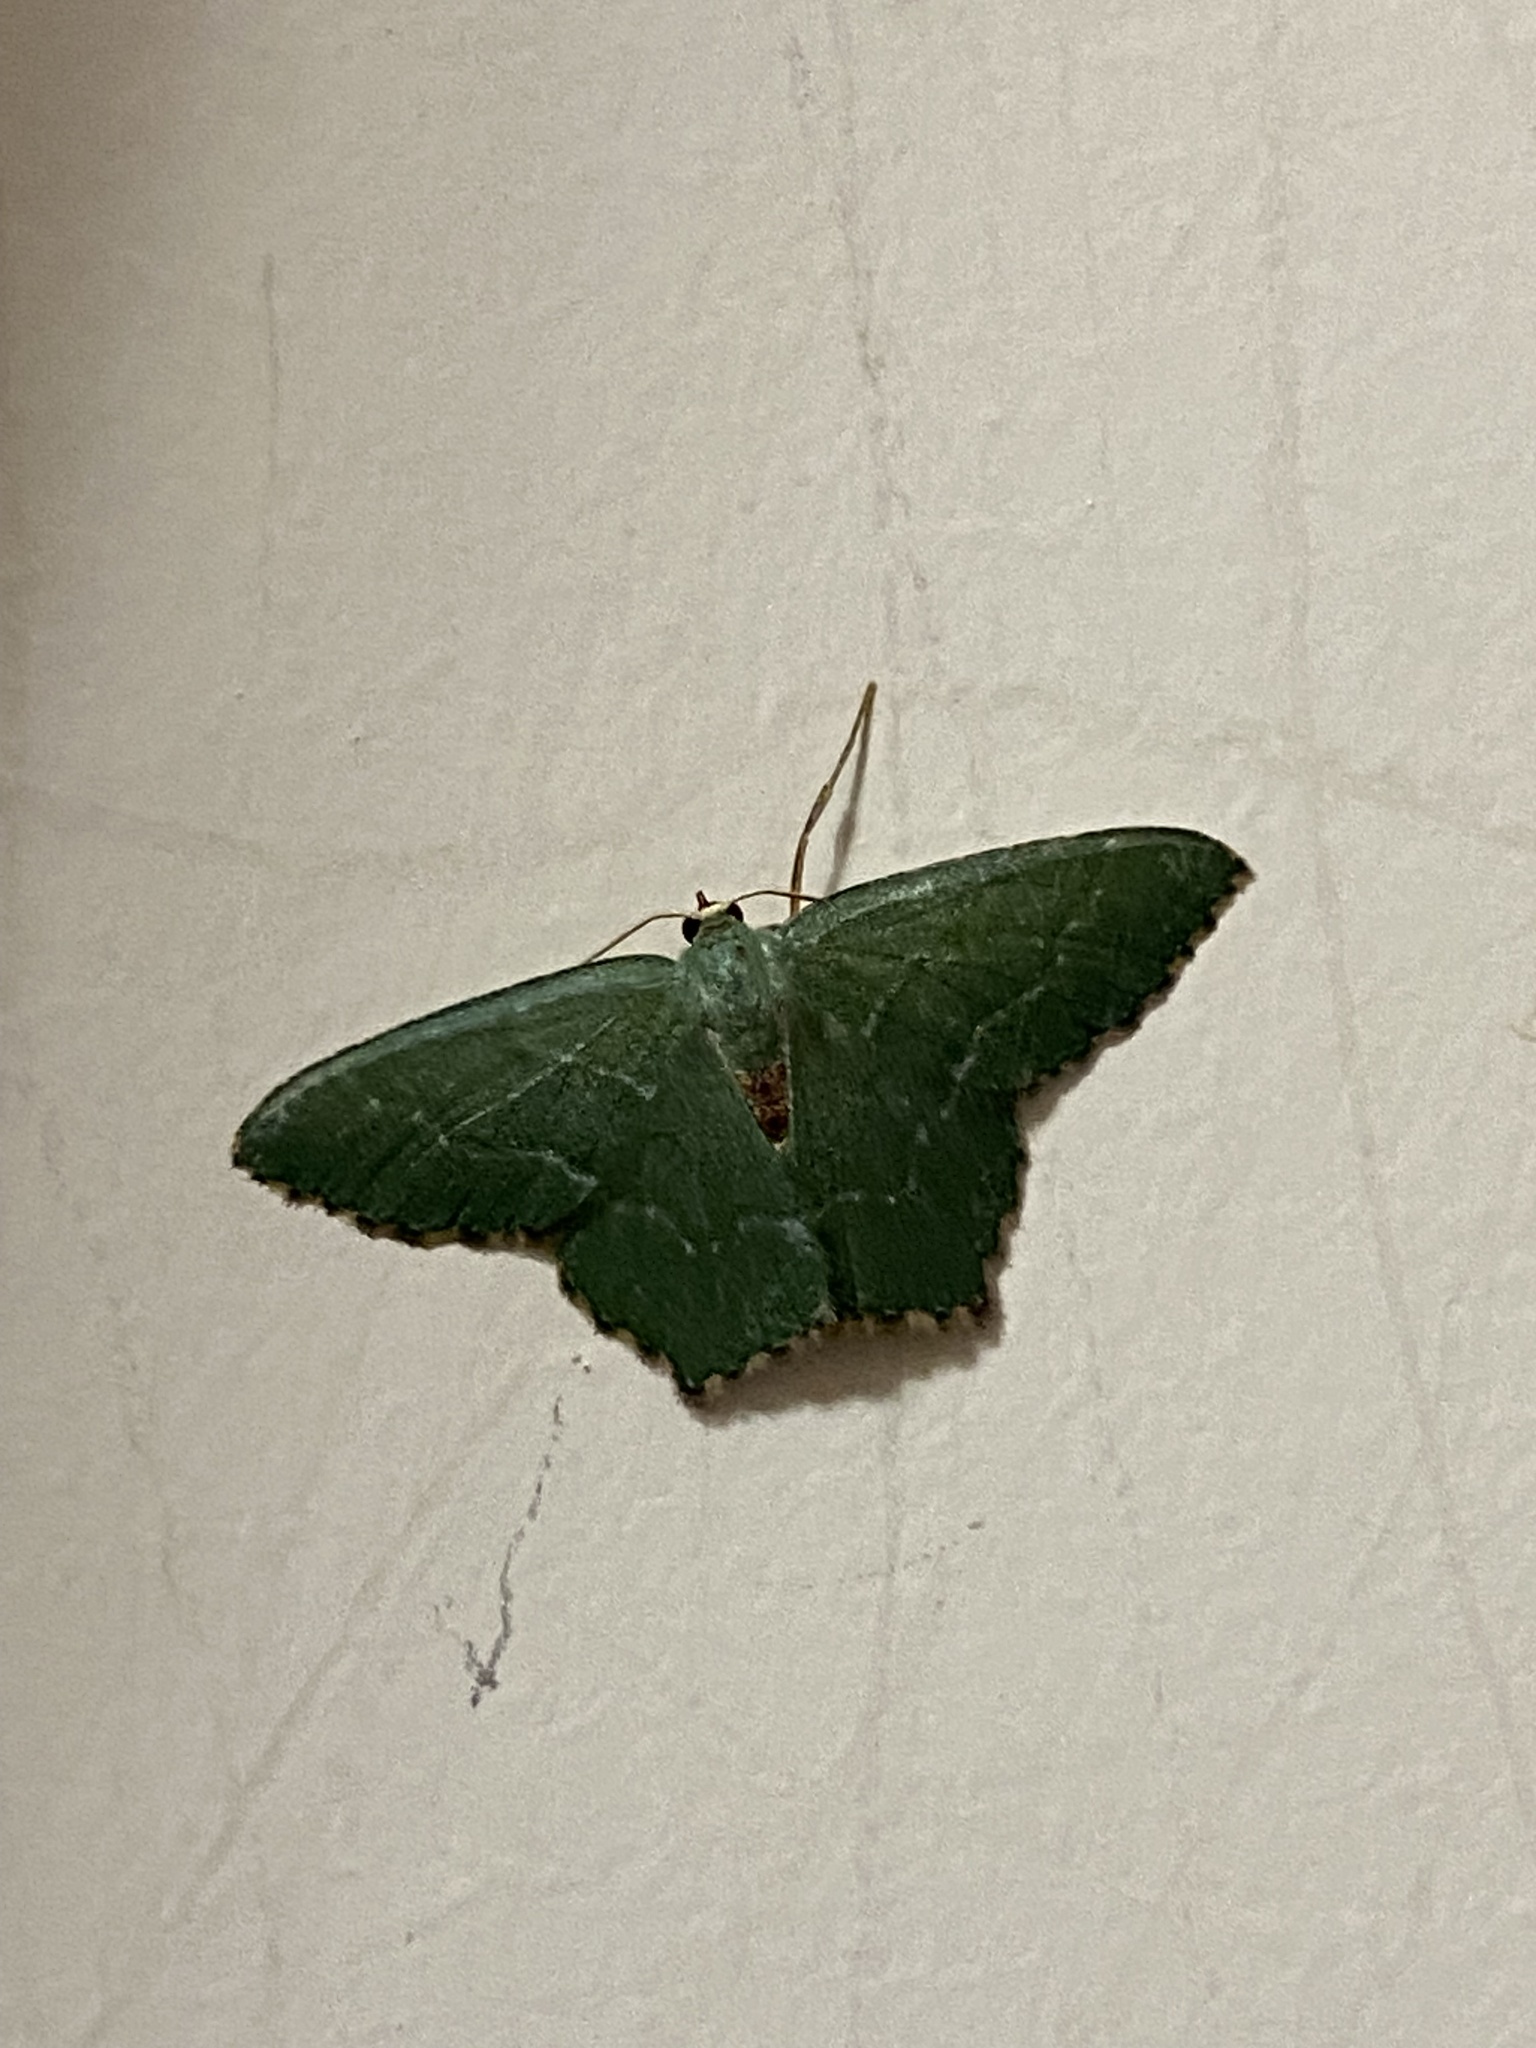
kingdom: Animalia
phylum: Arthropoda
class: Insecta
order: Lepidoptera
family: Geometridae
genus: Hemithea
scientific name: Hemithea aestivaria
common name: Common emerald
